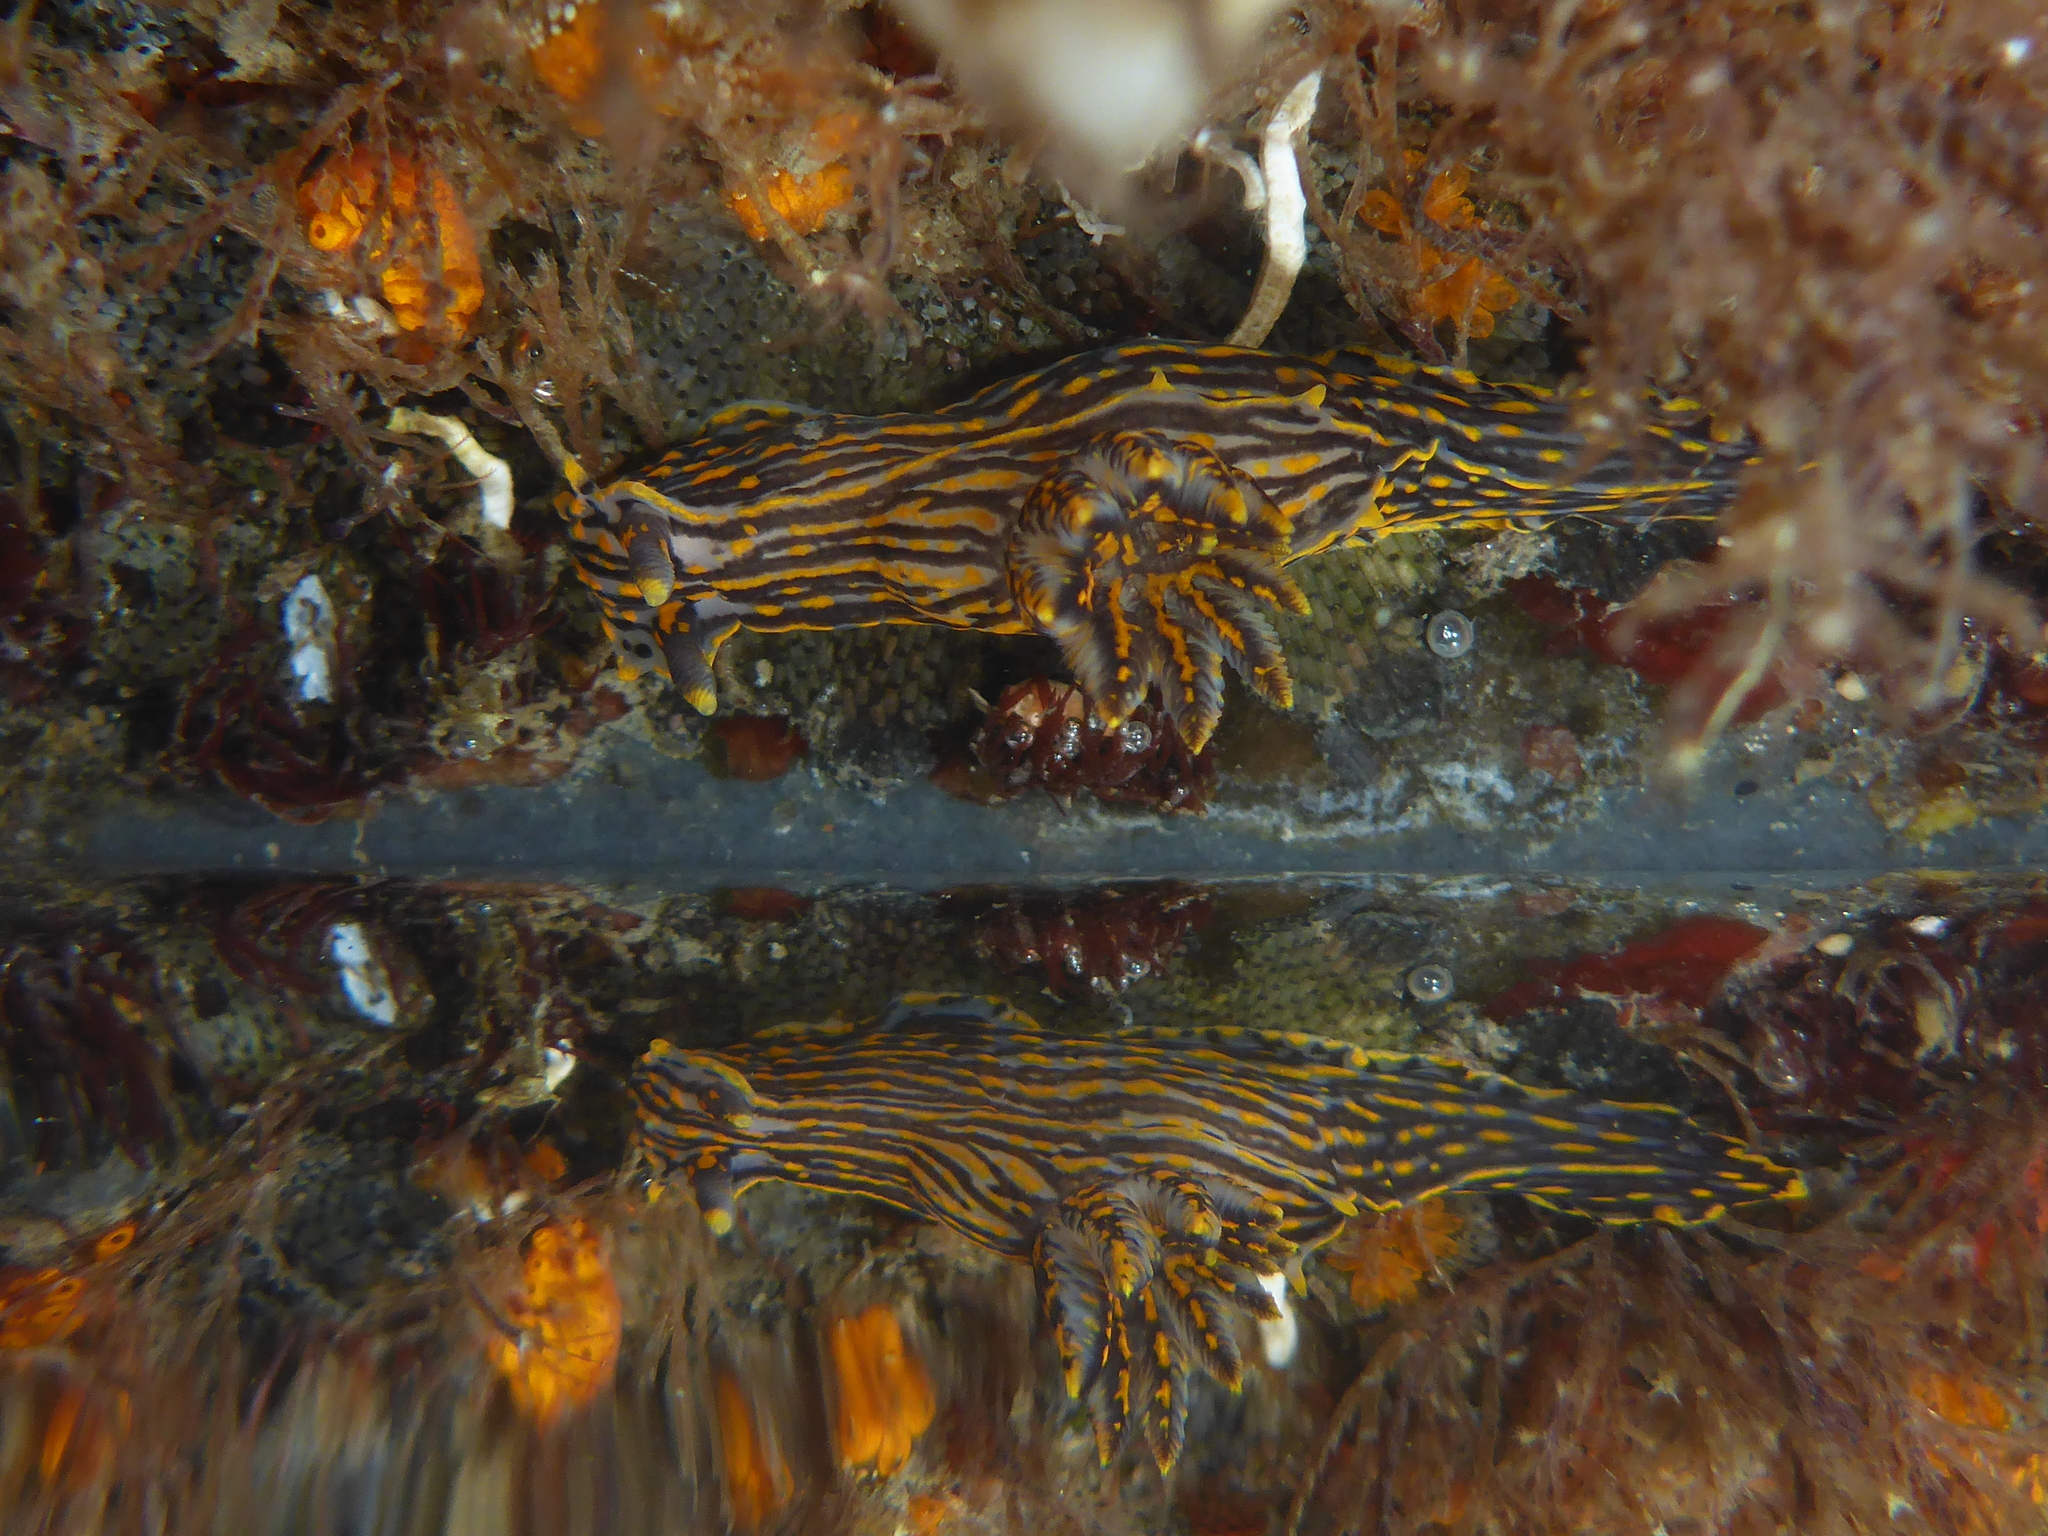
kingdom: Animalia
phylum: Mollusca
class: Gastropoda
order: Nudibranchia
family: Polyceridae
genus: Polycera
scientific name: Polycera atra
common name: Orange-spike polycera
